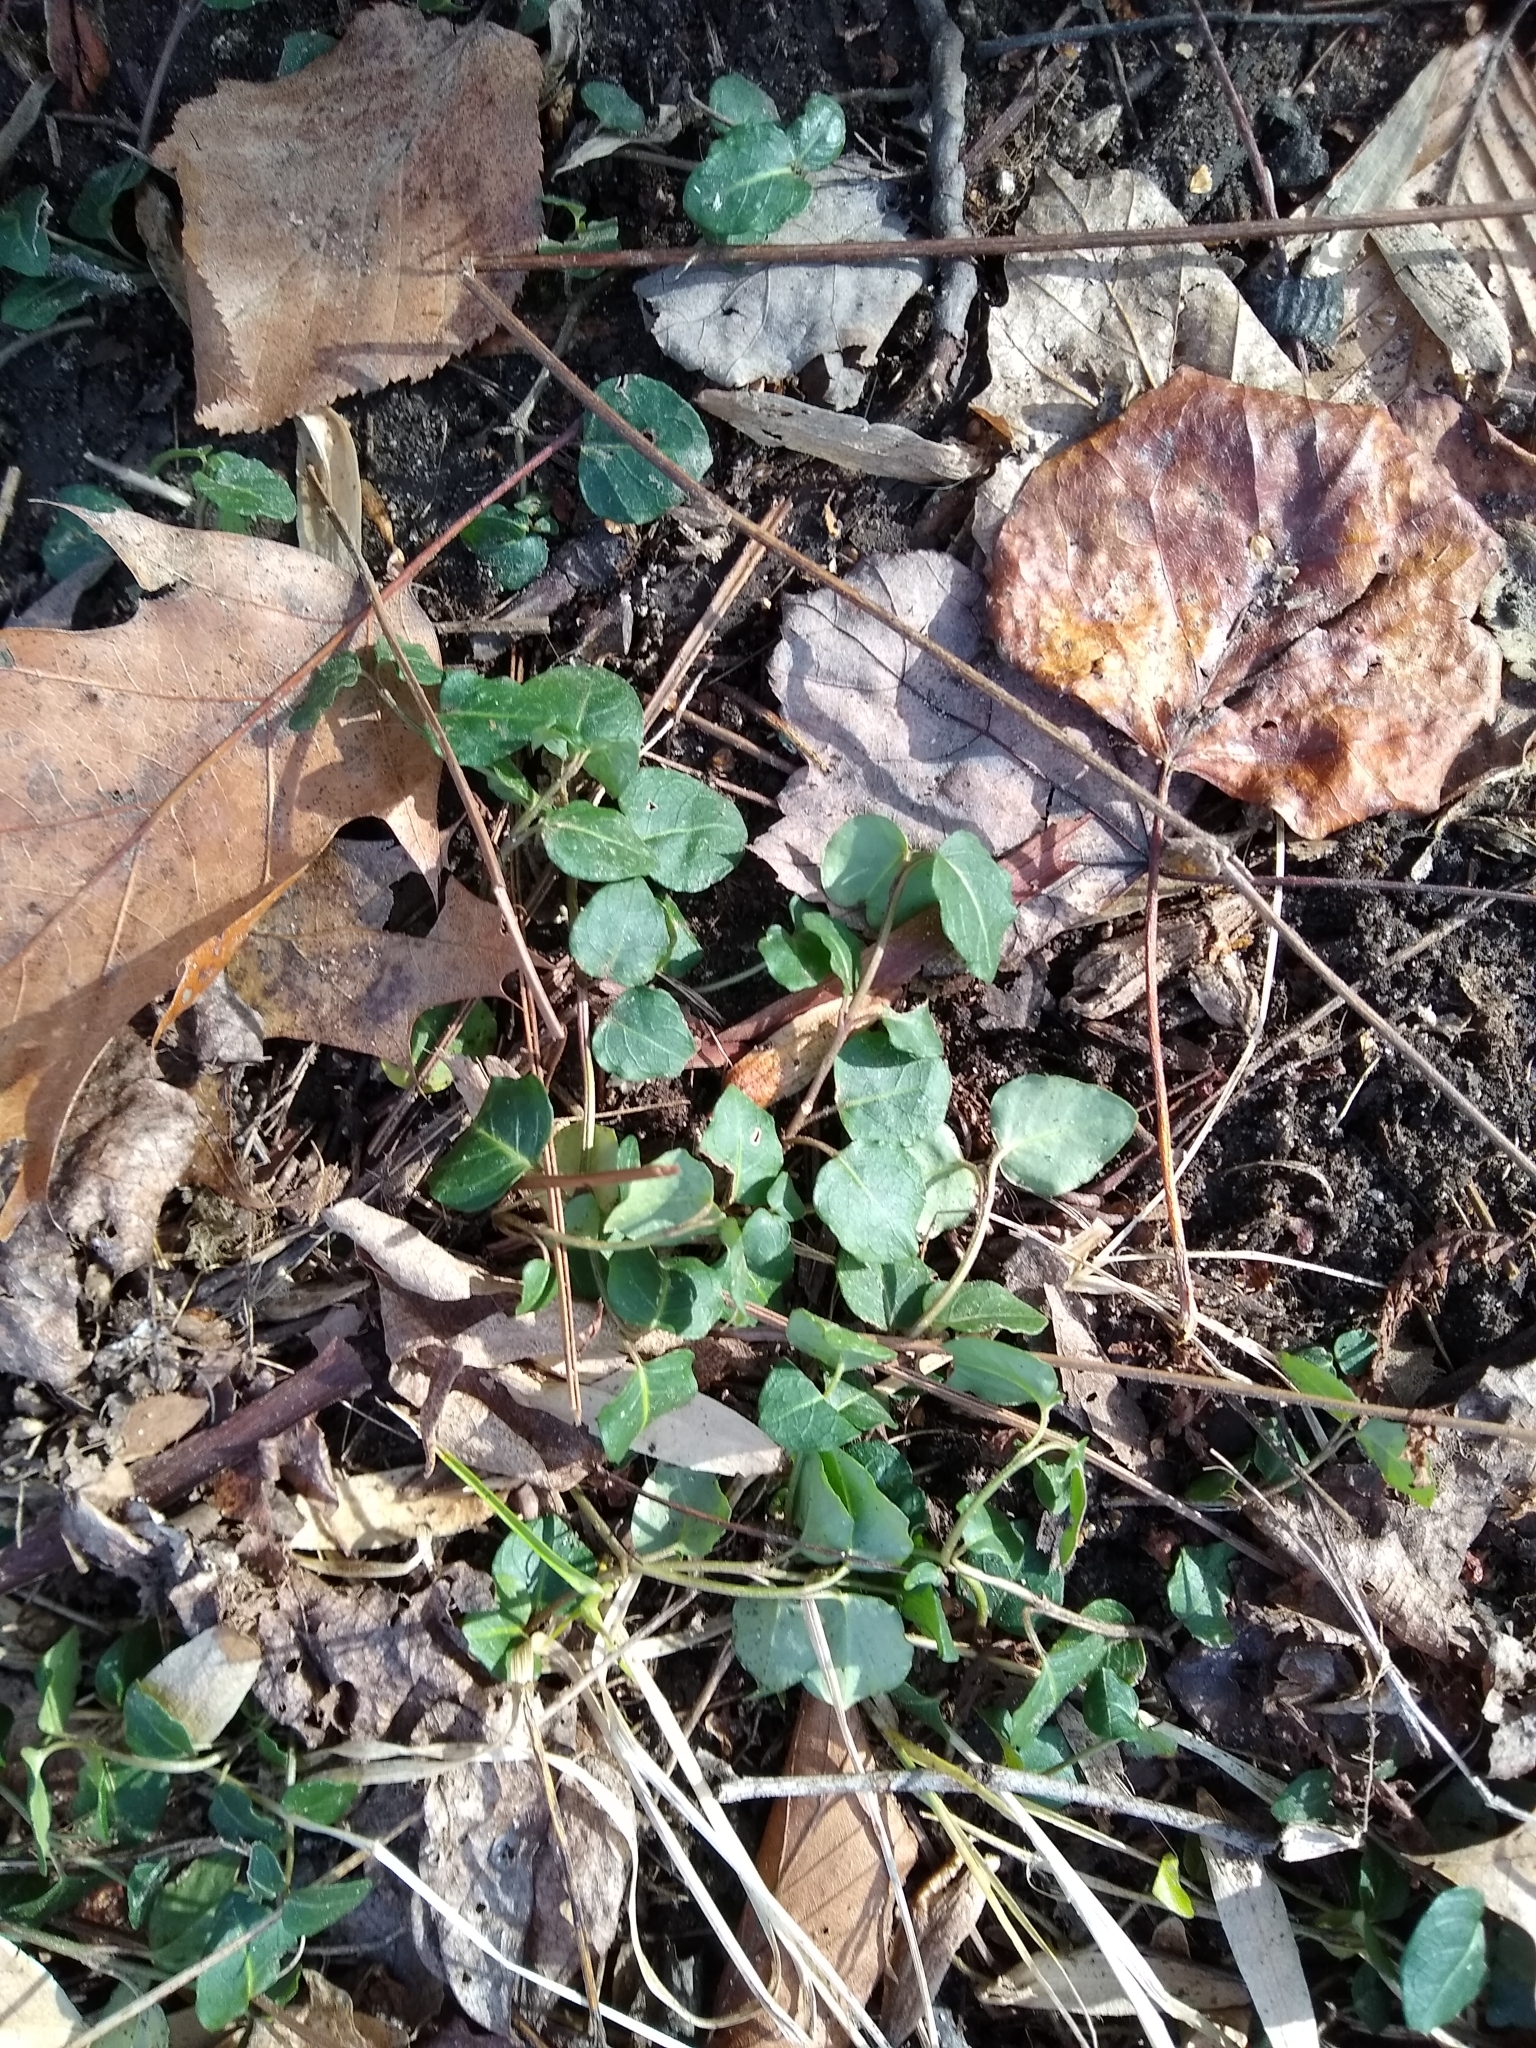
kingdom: Plantae
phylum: Tracheophyta
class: Magnoliopsida
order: Gentianales
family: Rubiaceae
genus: Mitchella
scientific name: Mitchella repens
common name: Partridge-berry
